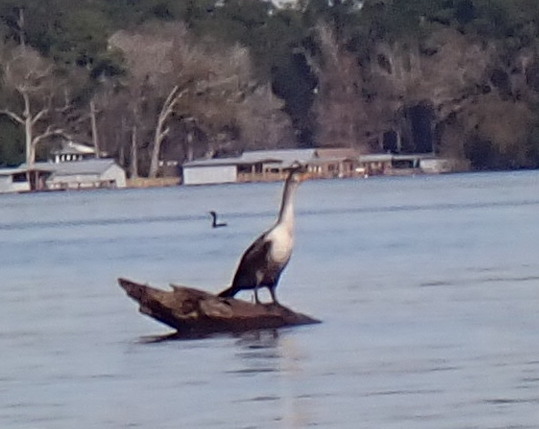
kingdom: Animalia
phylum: Chordata
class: Aves
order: Suliformes
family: Phalacrocoracidae
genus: Phalacrocorax
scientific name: Phalacrocorax auritus
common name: Double-crested cormorant
